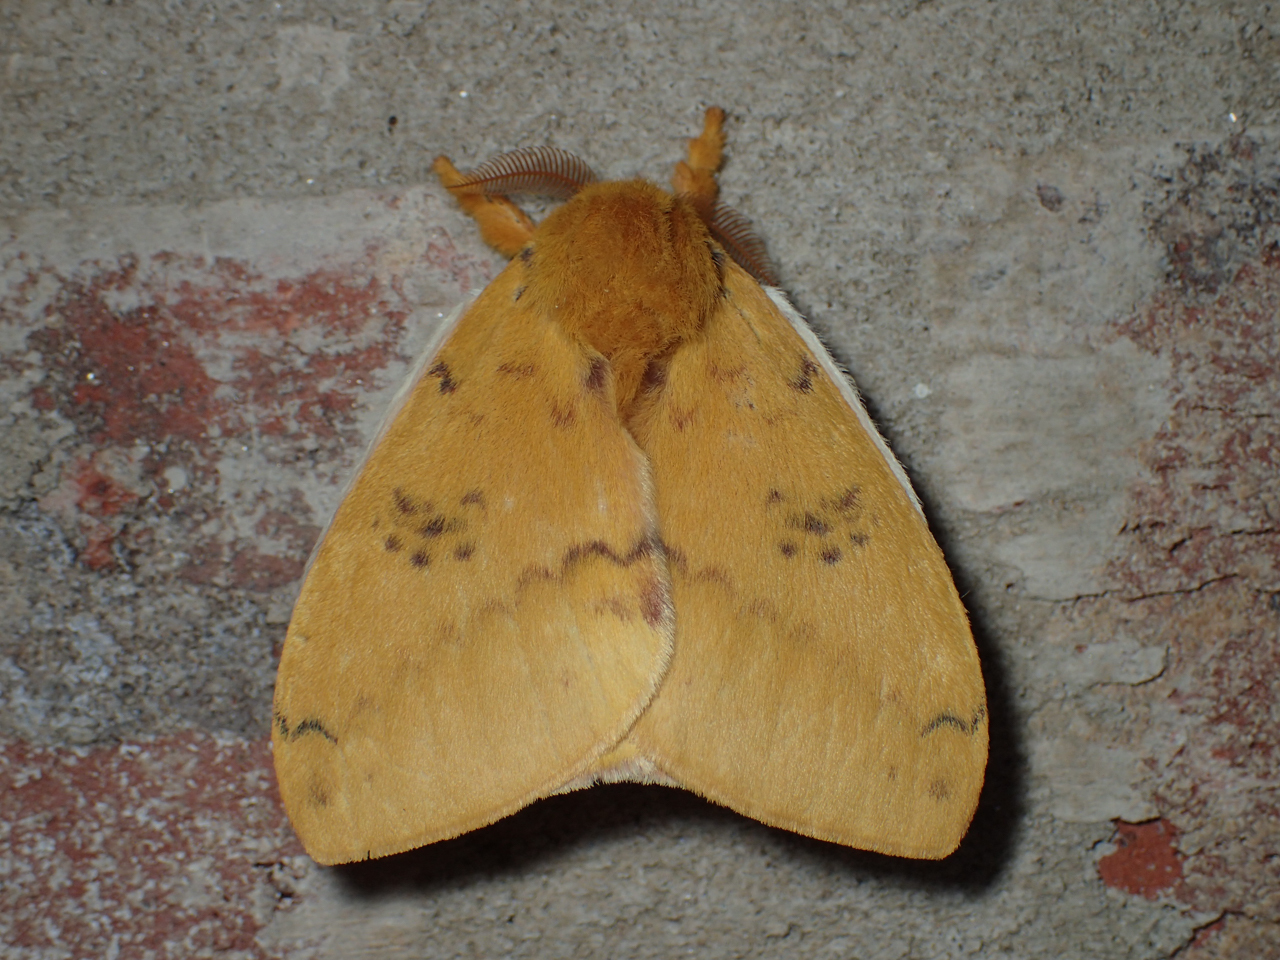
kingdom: Animalia
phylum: Arthropoda
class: Insecta
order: Lepidoptera
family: Saturniidae
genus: Automeris
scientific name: Automeris io
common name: Io moth
